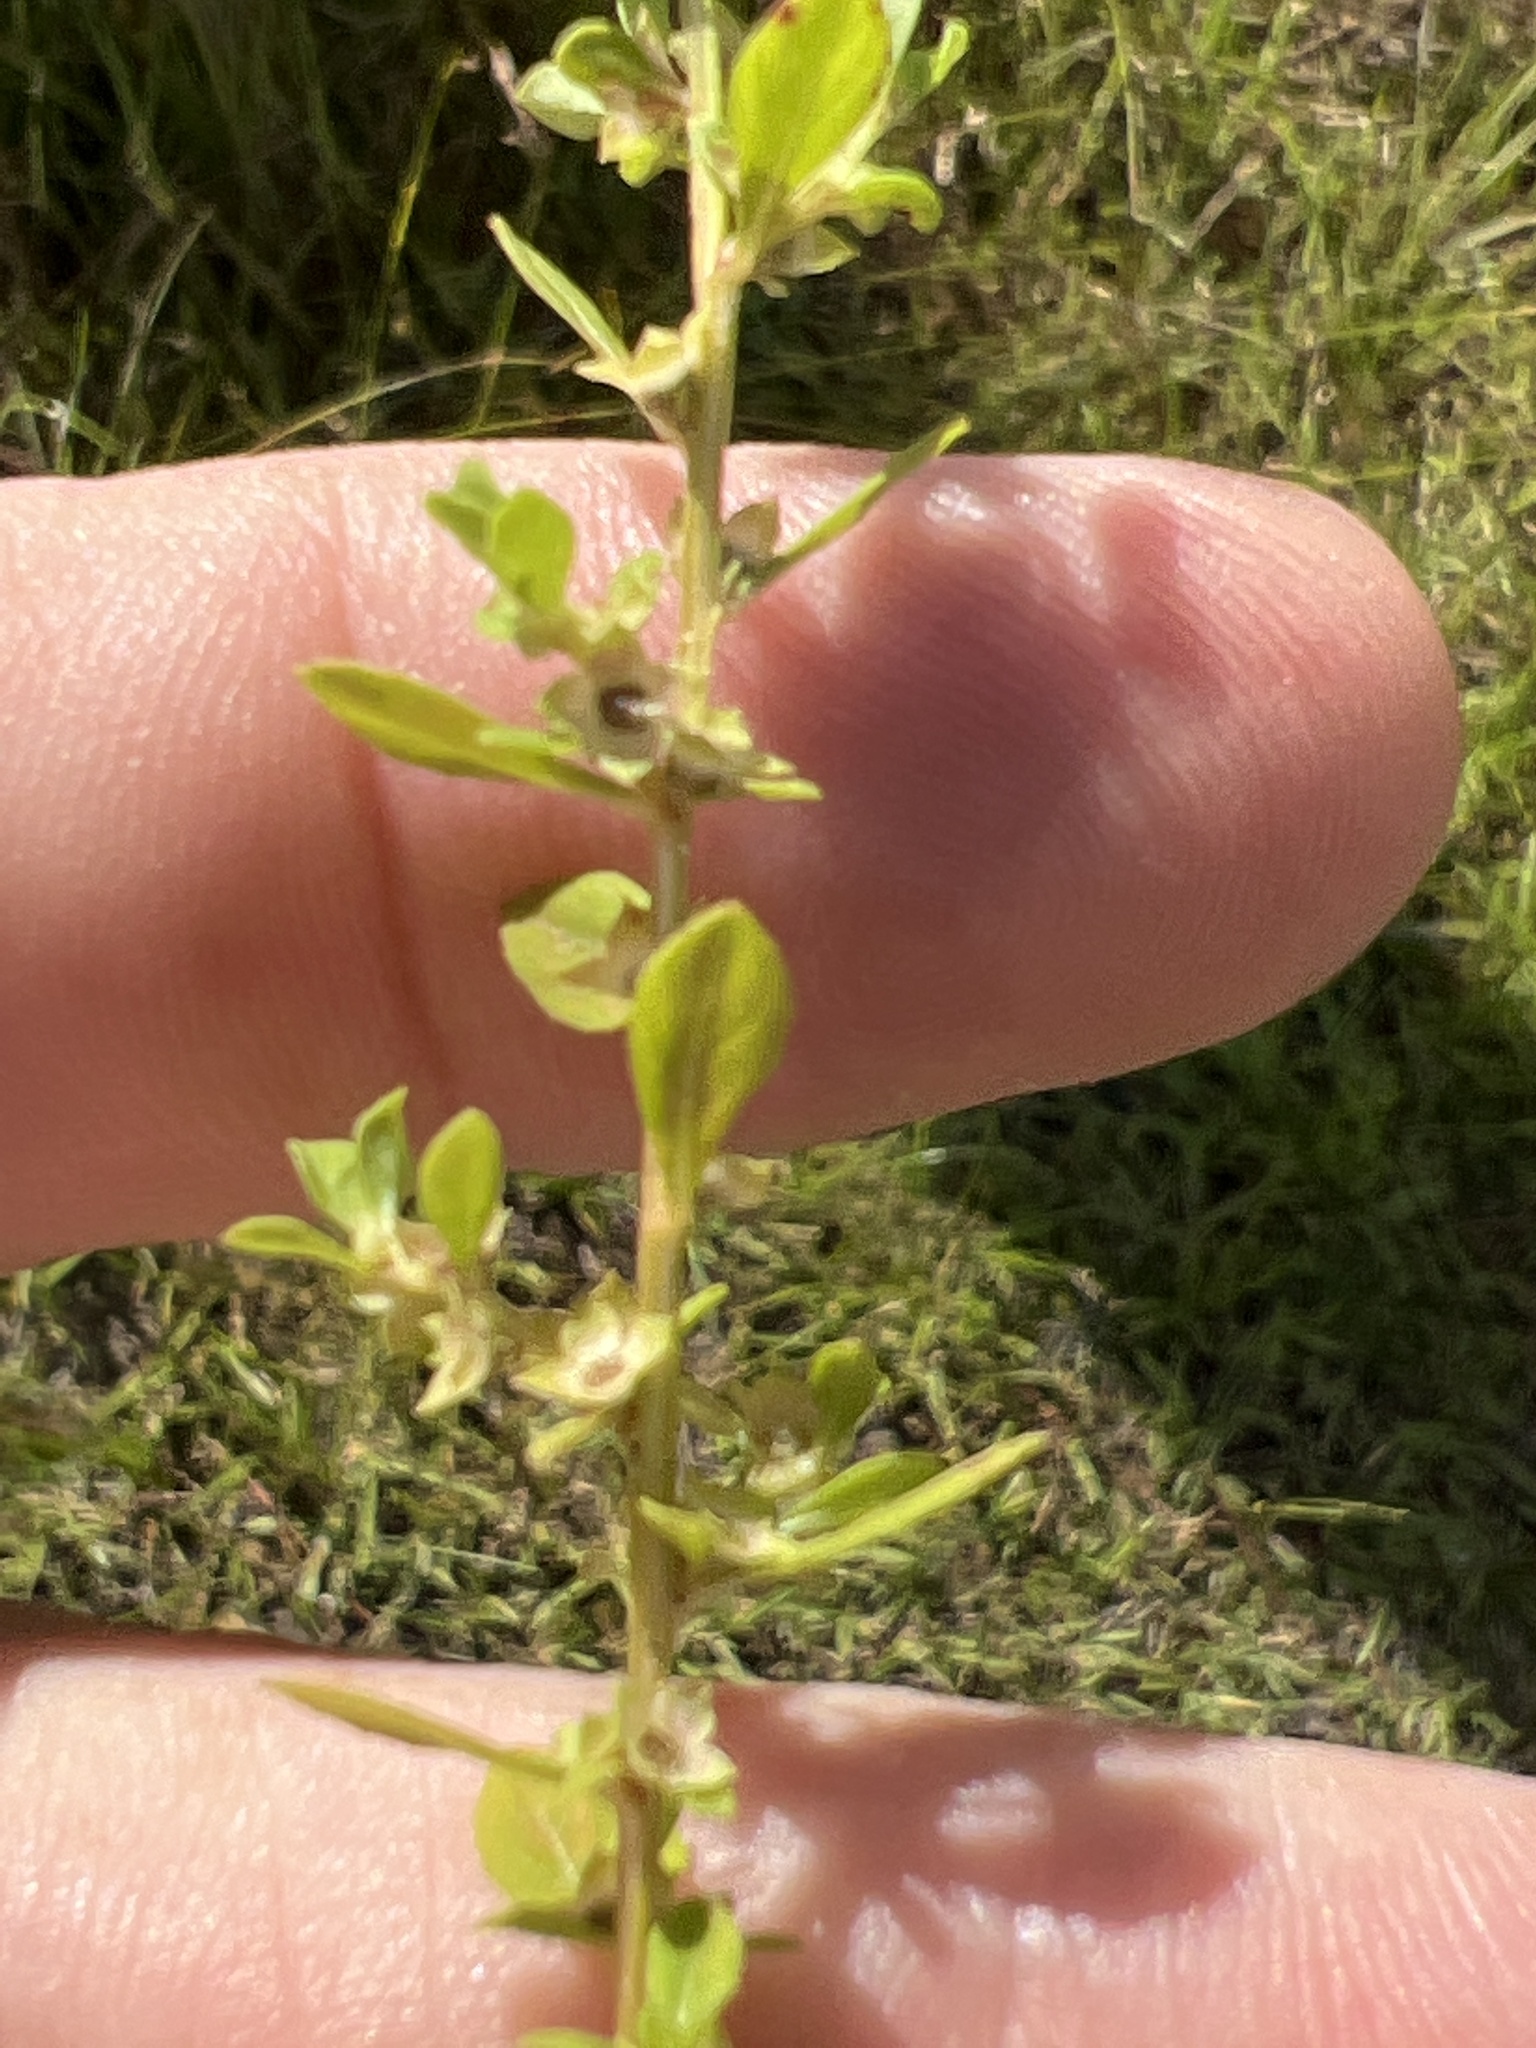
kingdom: Plantae
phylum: Tracheophyta
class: Magnoliopsida
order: Myrtales
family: Onagraceae
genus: Ludwigia
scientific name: Ludwigia microcarpa
